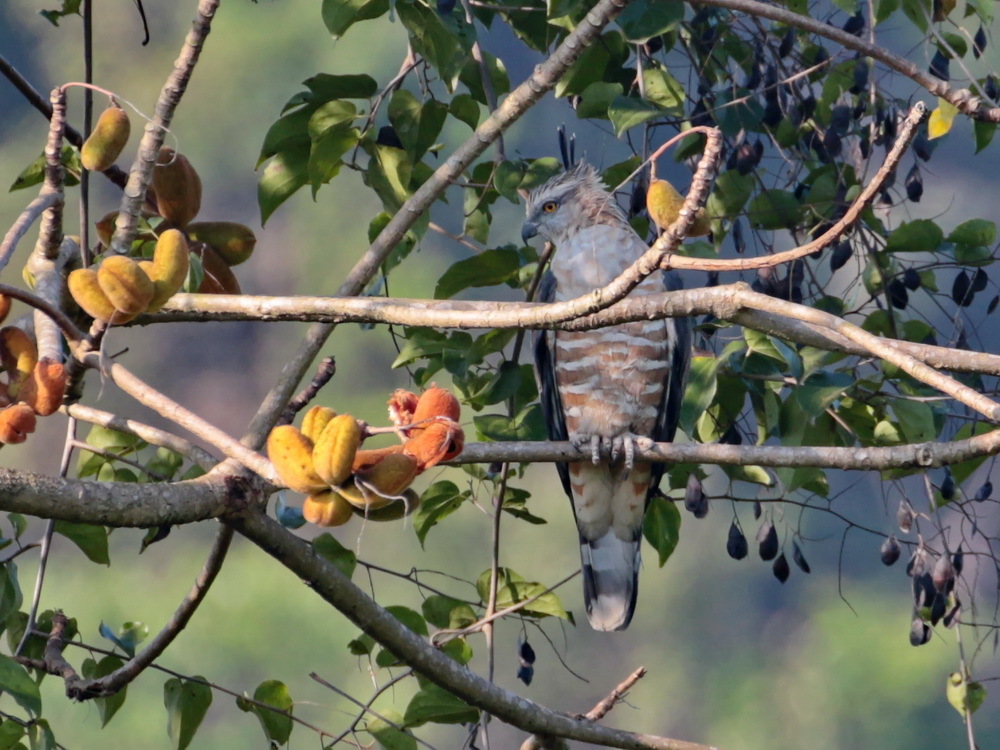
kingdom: Animalia
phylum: Chordata
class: Aves
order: Accipitriformes
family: Accipitridae
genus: Aviceda
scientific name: Aviceda jerdoni
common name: Jerdon's baza
